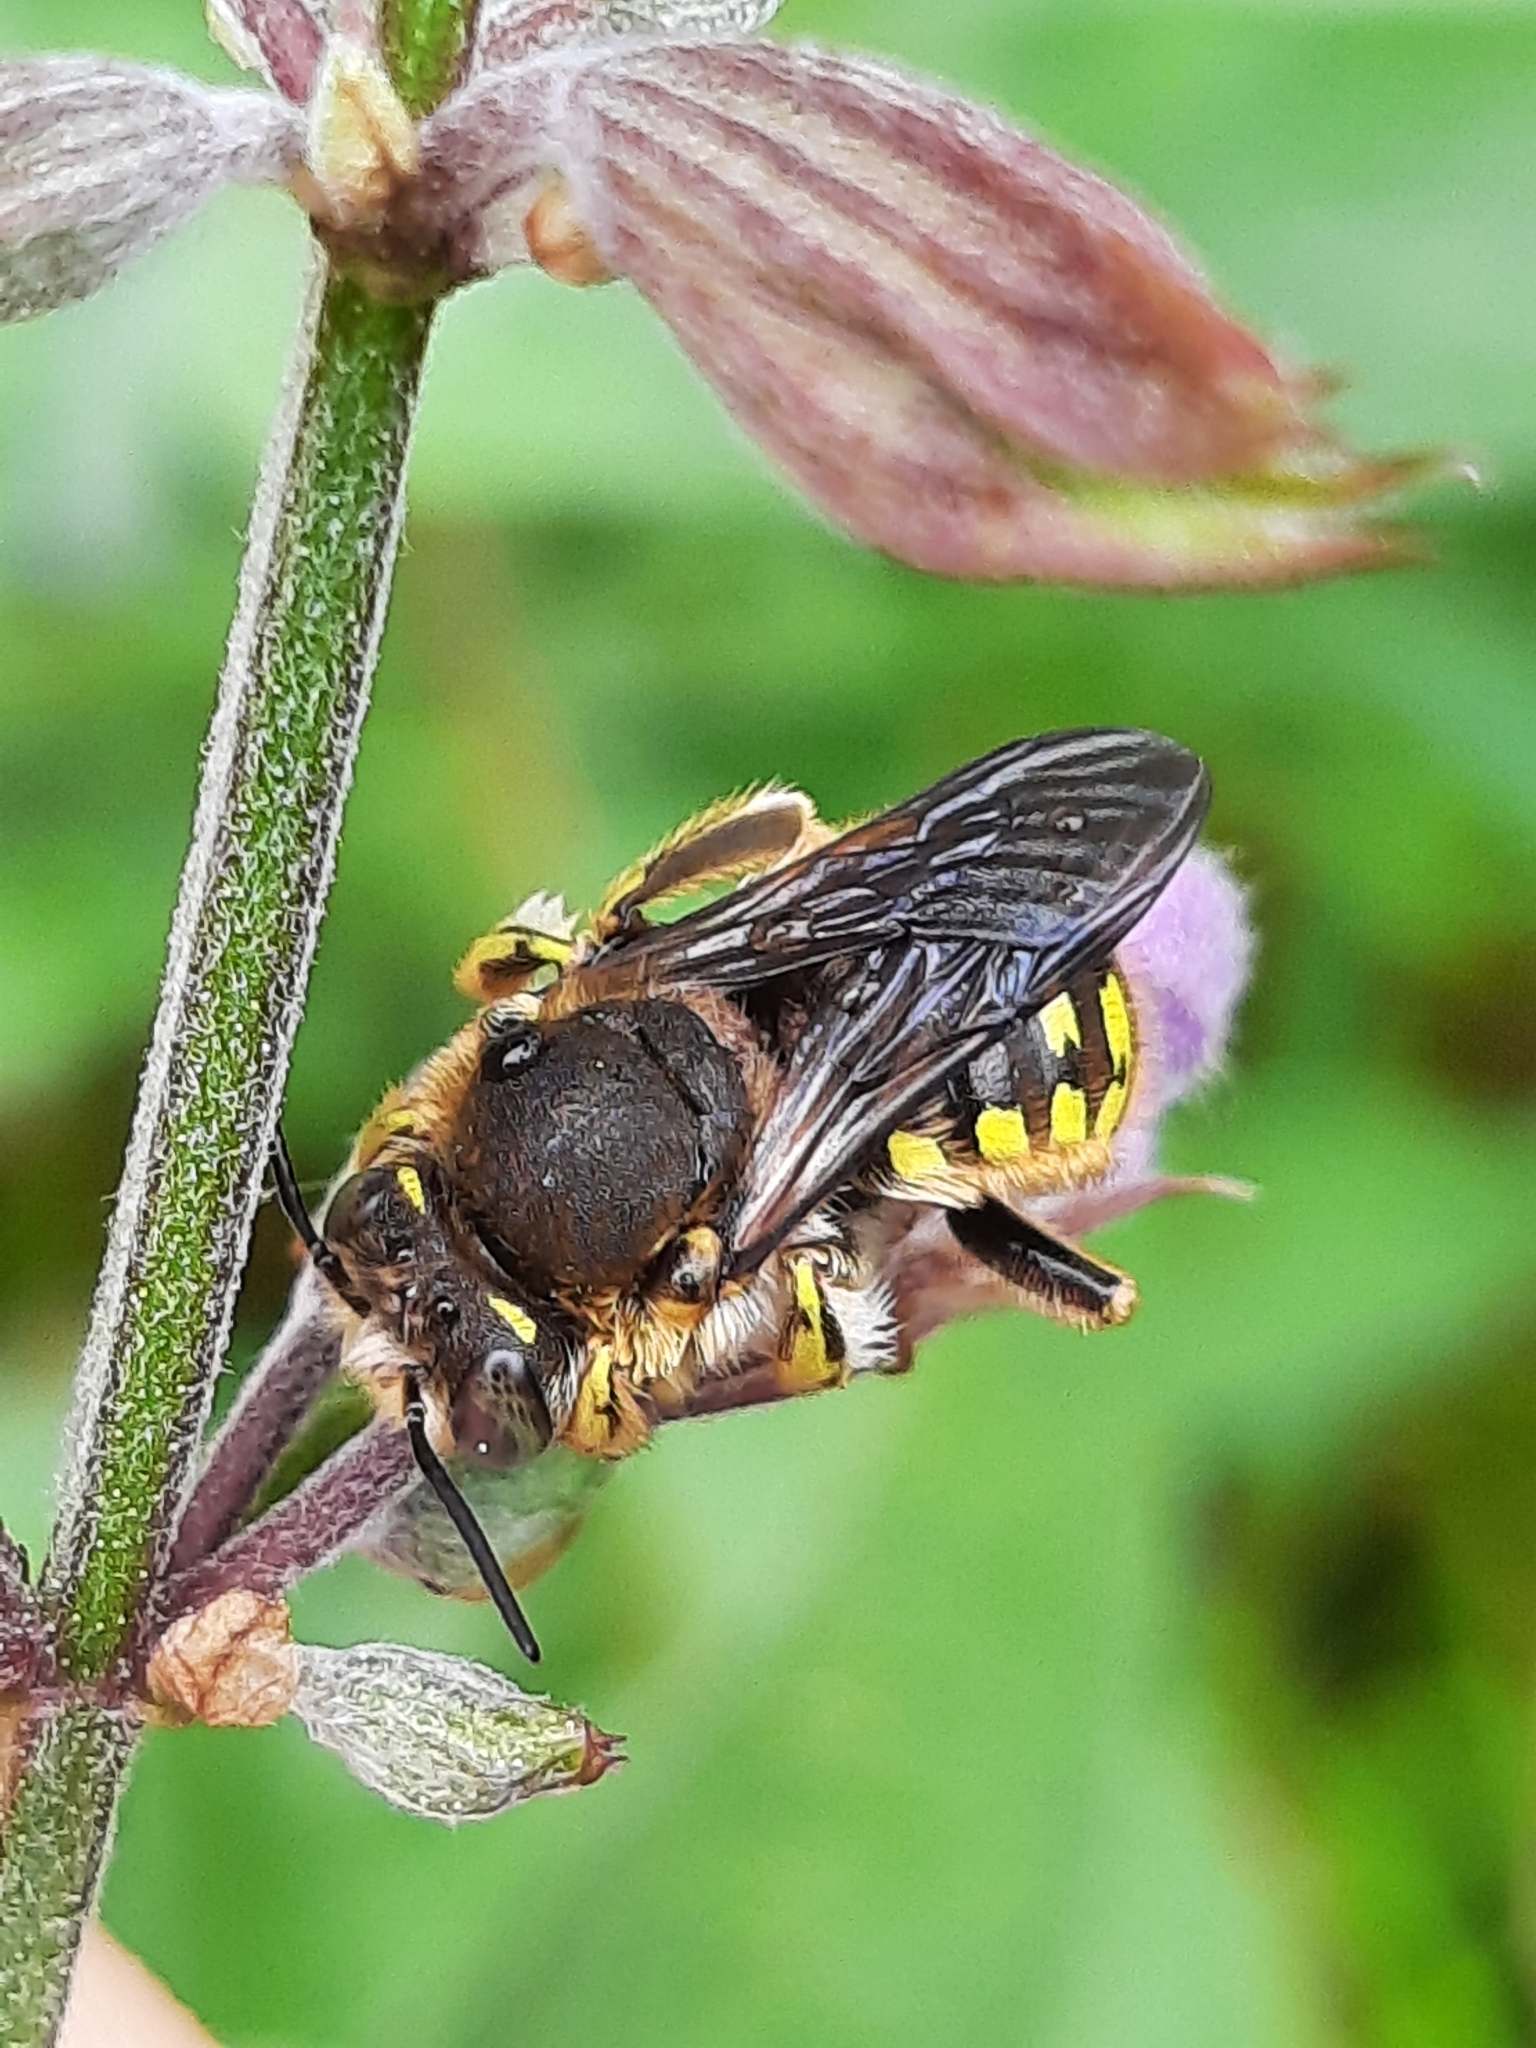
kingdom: Animalia
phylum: Arthropoda
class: Insecta
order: Hymenoptera
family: Megachilidae
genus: Anthidium
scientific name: Anthidium manicatum
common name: Wool carder bee
